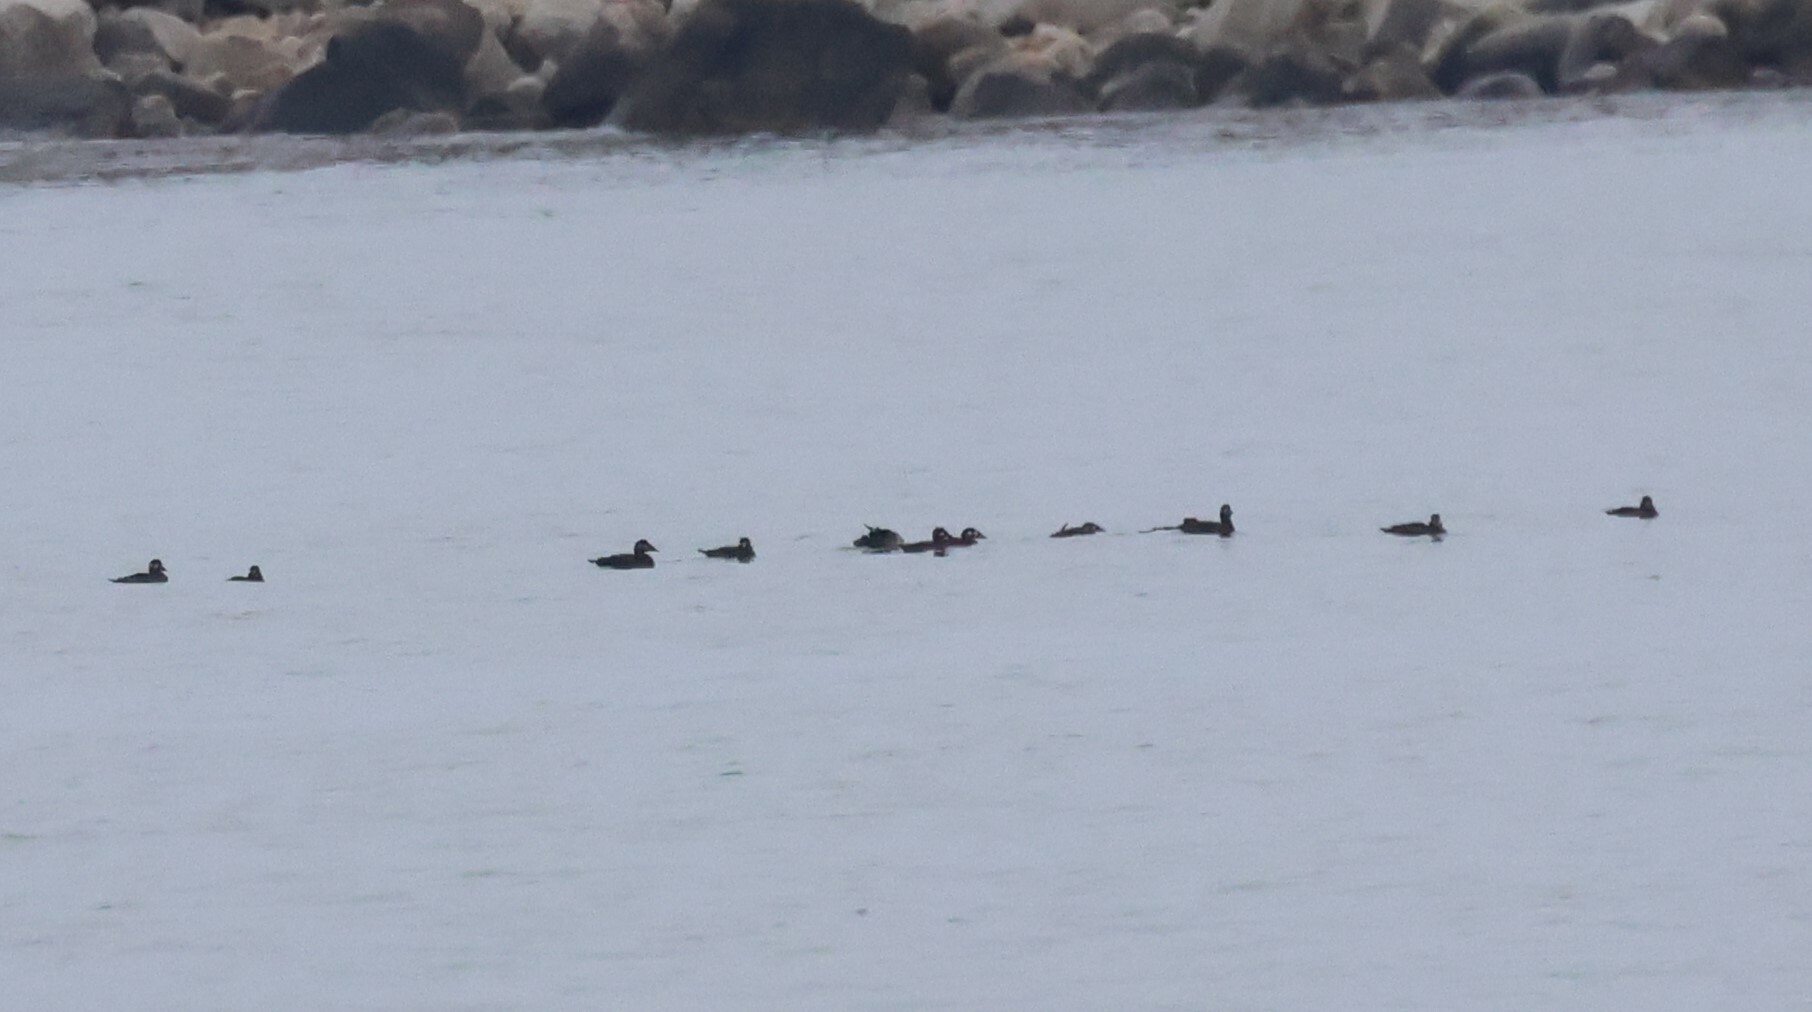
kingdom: Animalia
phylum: Chordata
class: Aves
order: Anseriformes
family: Anatidae
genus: Melanitta
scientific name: Melanitta perspicillata
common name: Surf scoter
